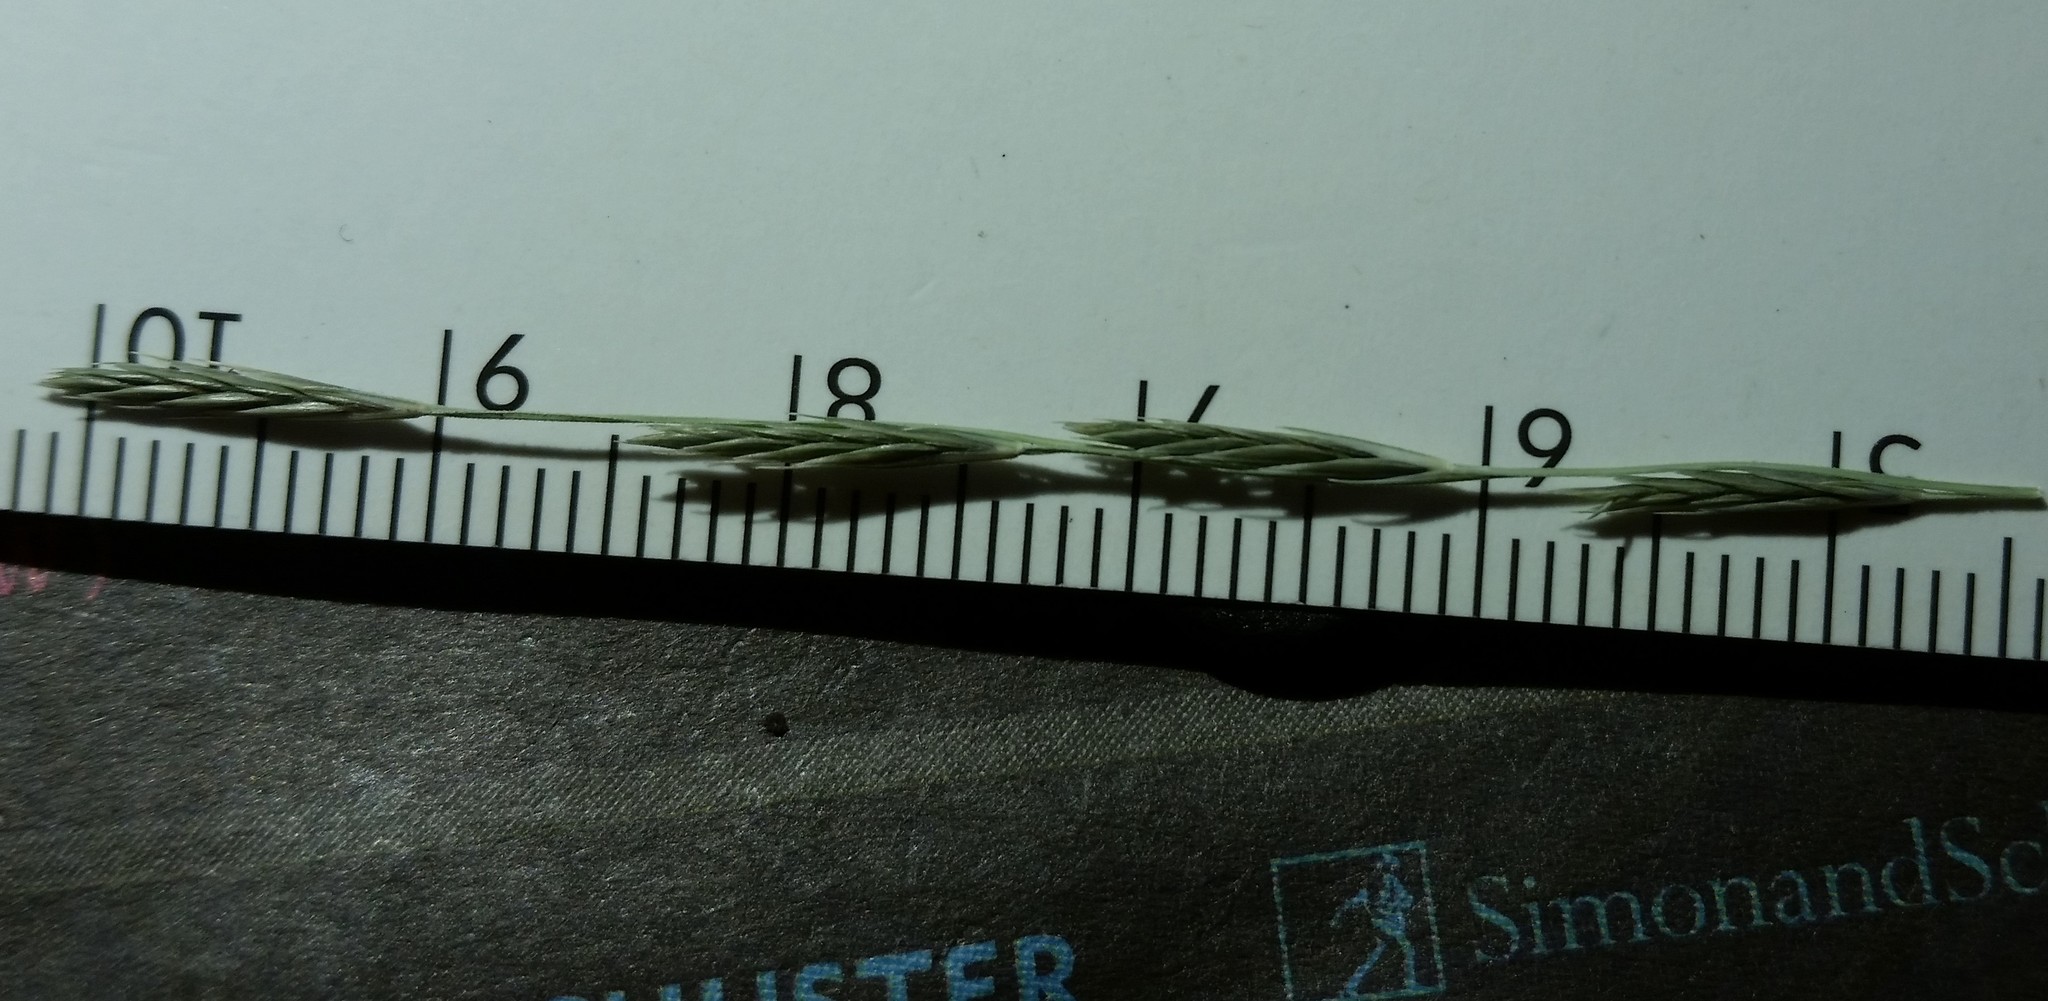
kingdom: Plantae
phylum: Tracheophyta
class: Liliopsida
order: Poales
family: Poaceae
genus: Diplachne
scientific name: Diplachne fusca
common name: Brown beetle grass
